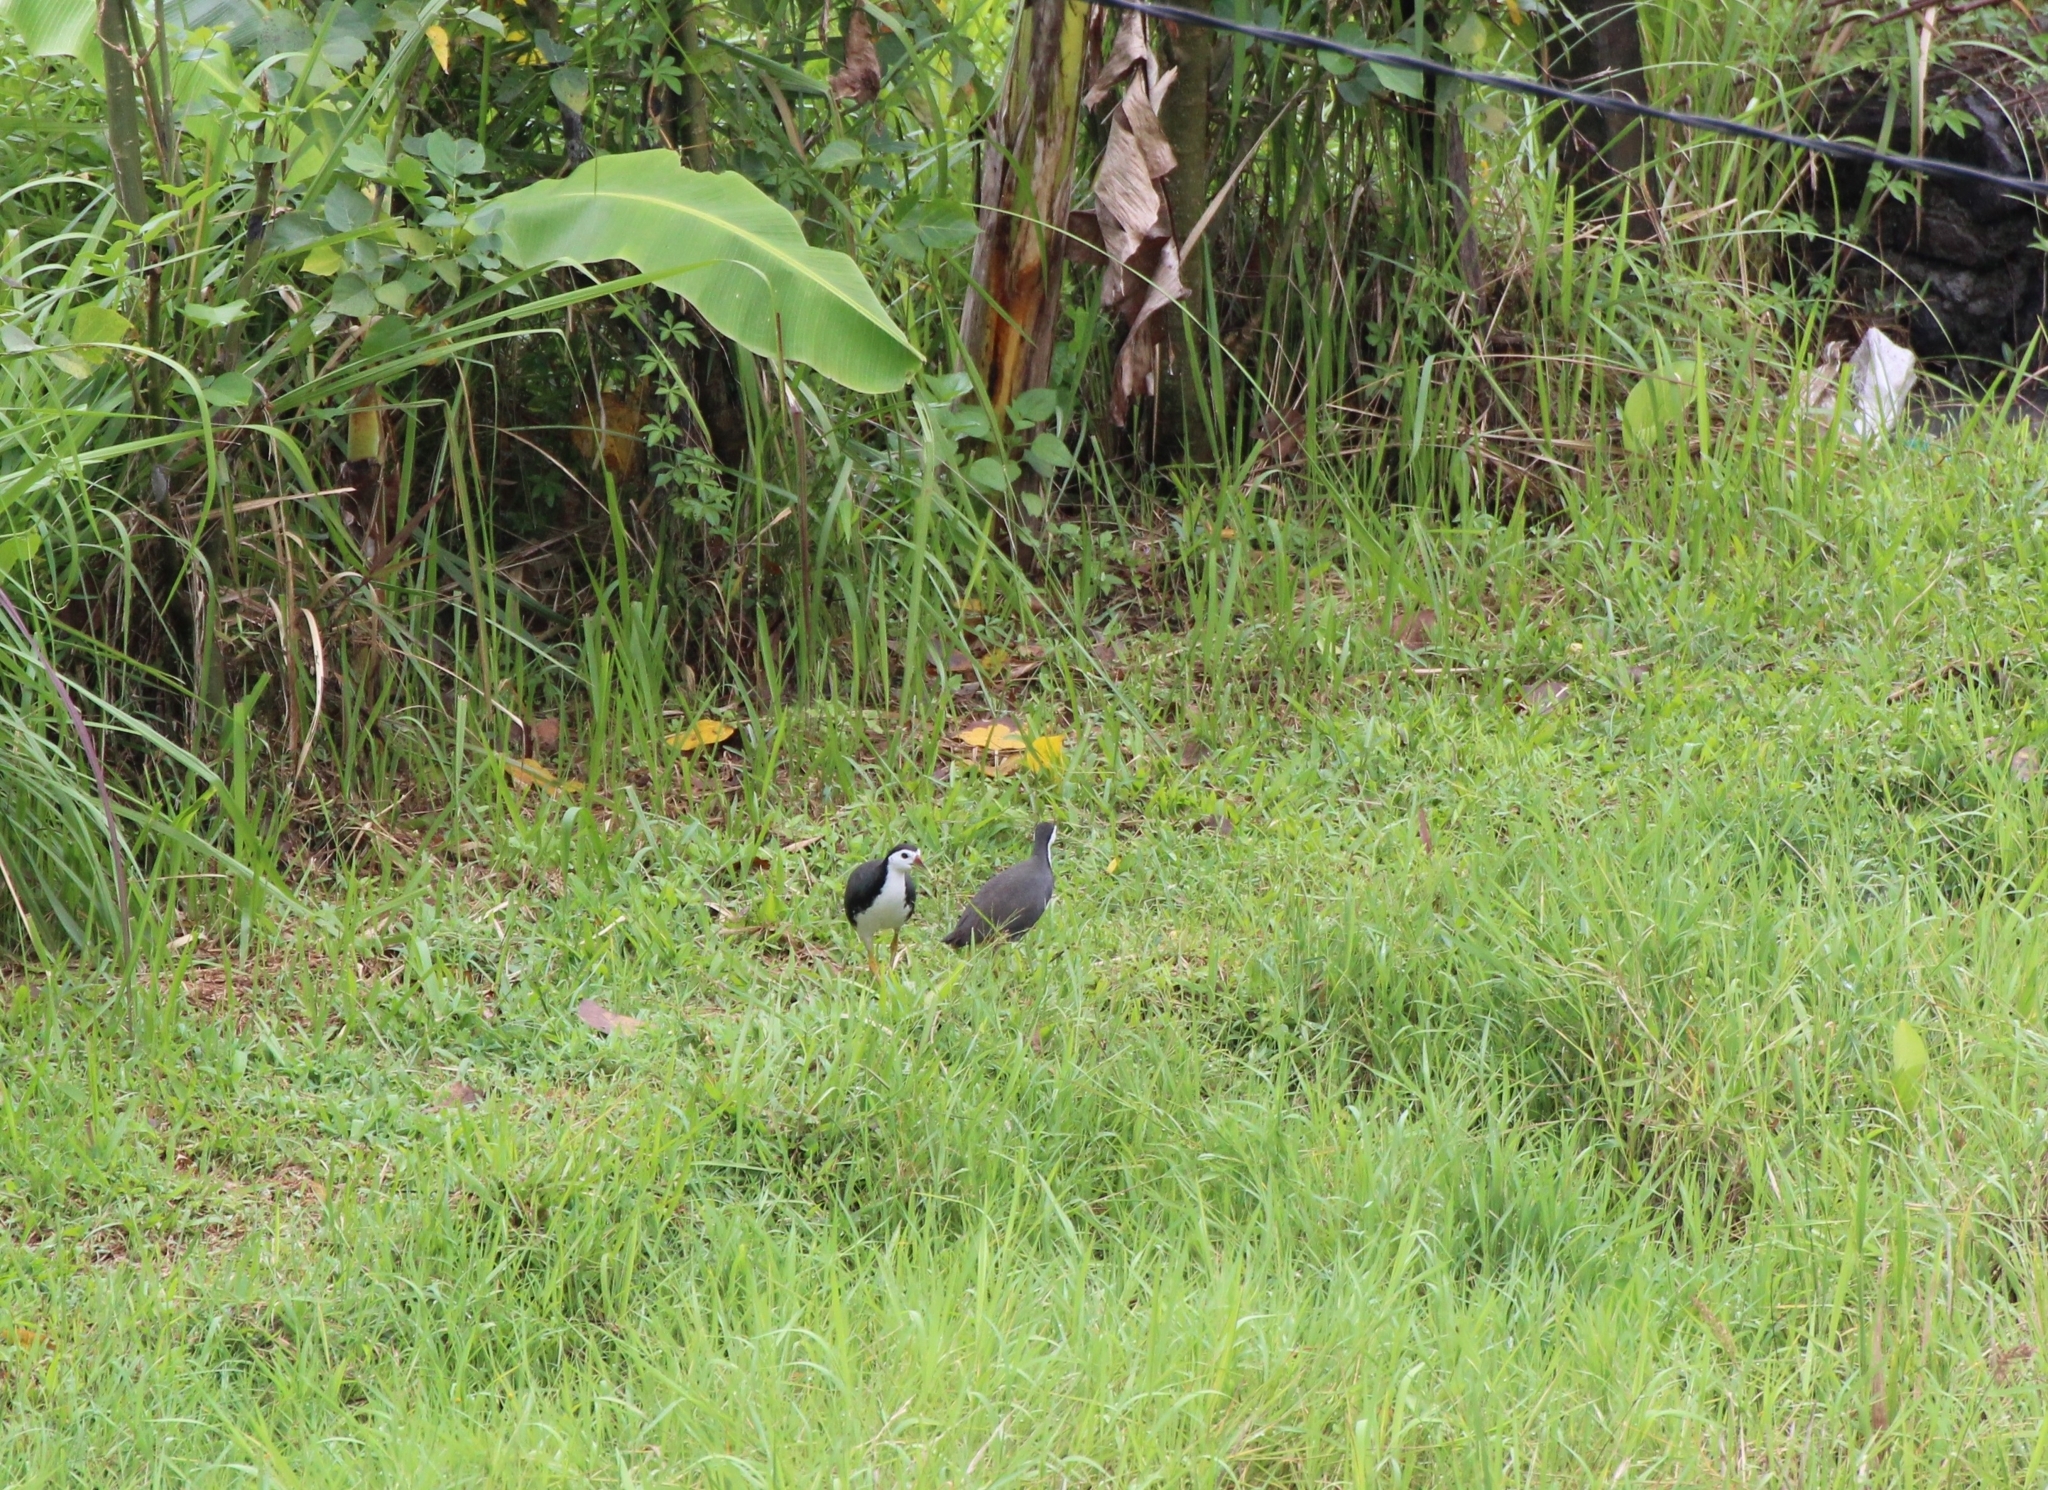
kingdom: Animalia
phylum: Chordata
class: Aves
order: Gruiformes
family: Rallidae
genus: Amaurornis
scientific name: Amaurornis phoenicurus
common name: White-breasted waterhen
